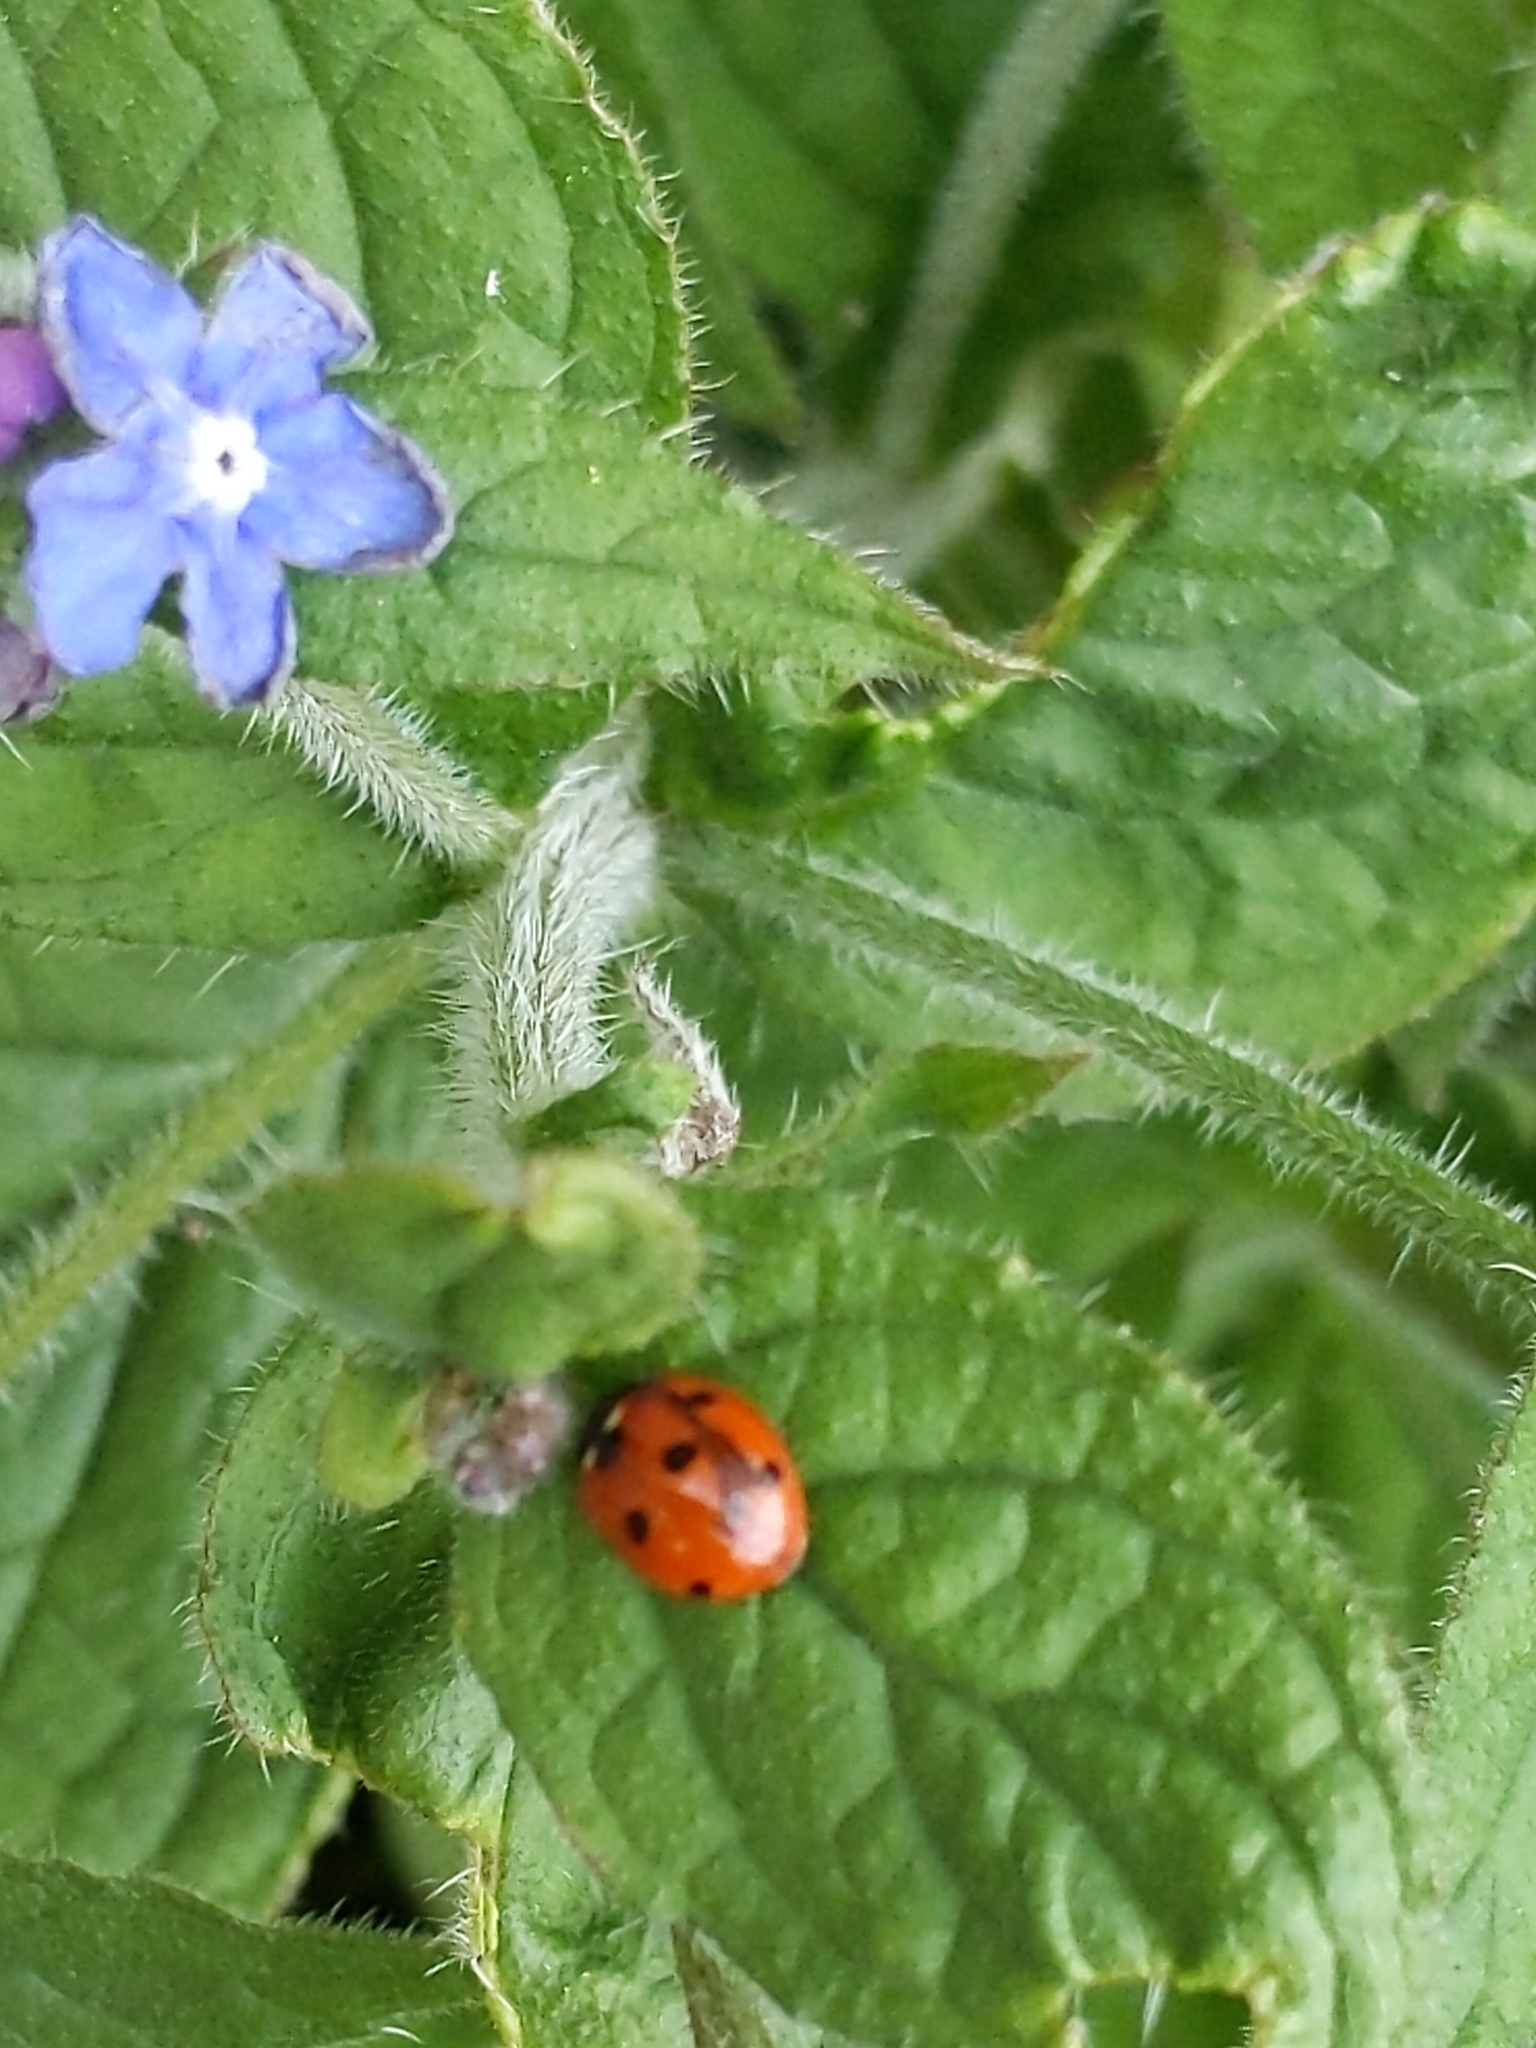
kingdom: Animalia
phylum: Arthropoda
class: Insecta
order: Coleoptera
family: Coccinellidae
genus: Coccinella
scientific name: Coccinella septempunctata
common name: Sevenspotted lady beetle
